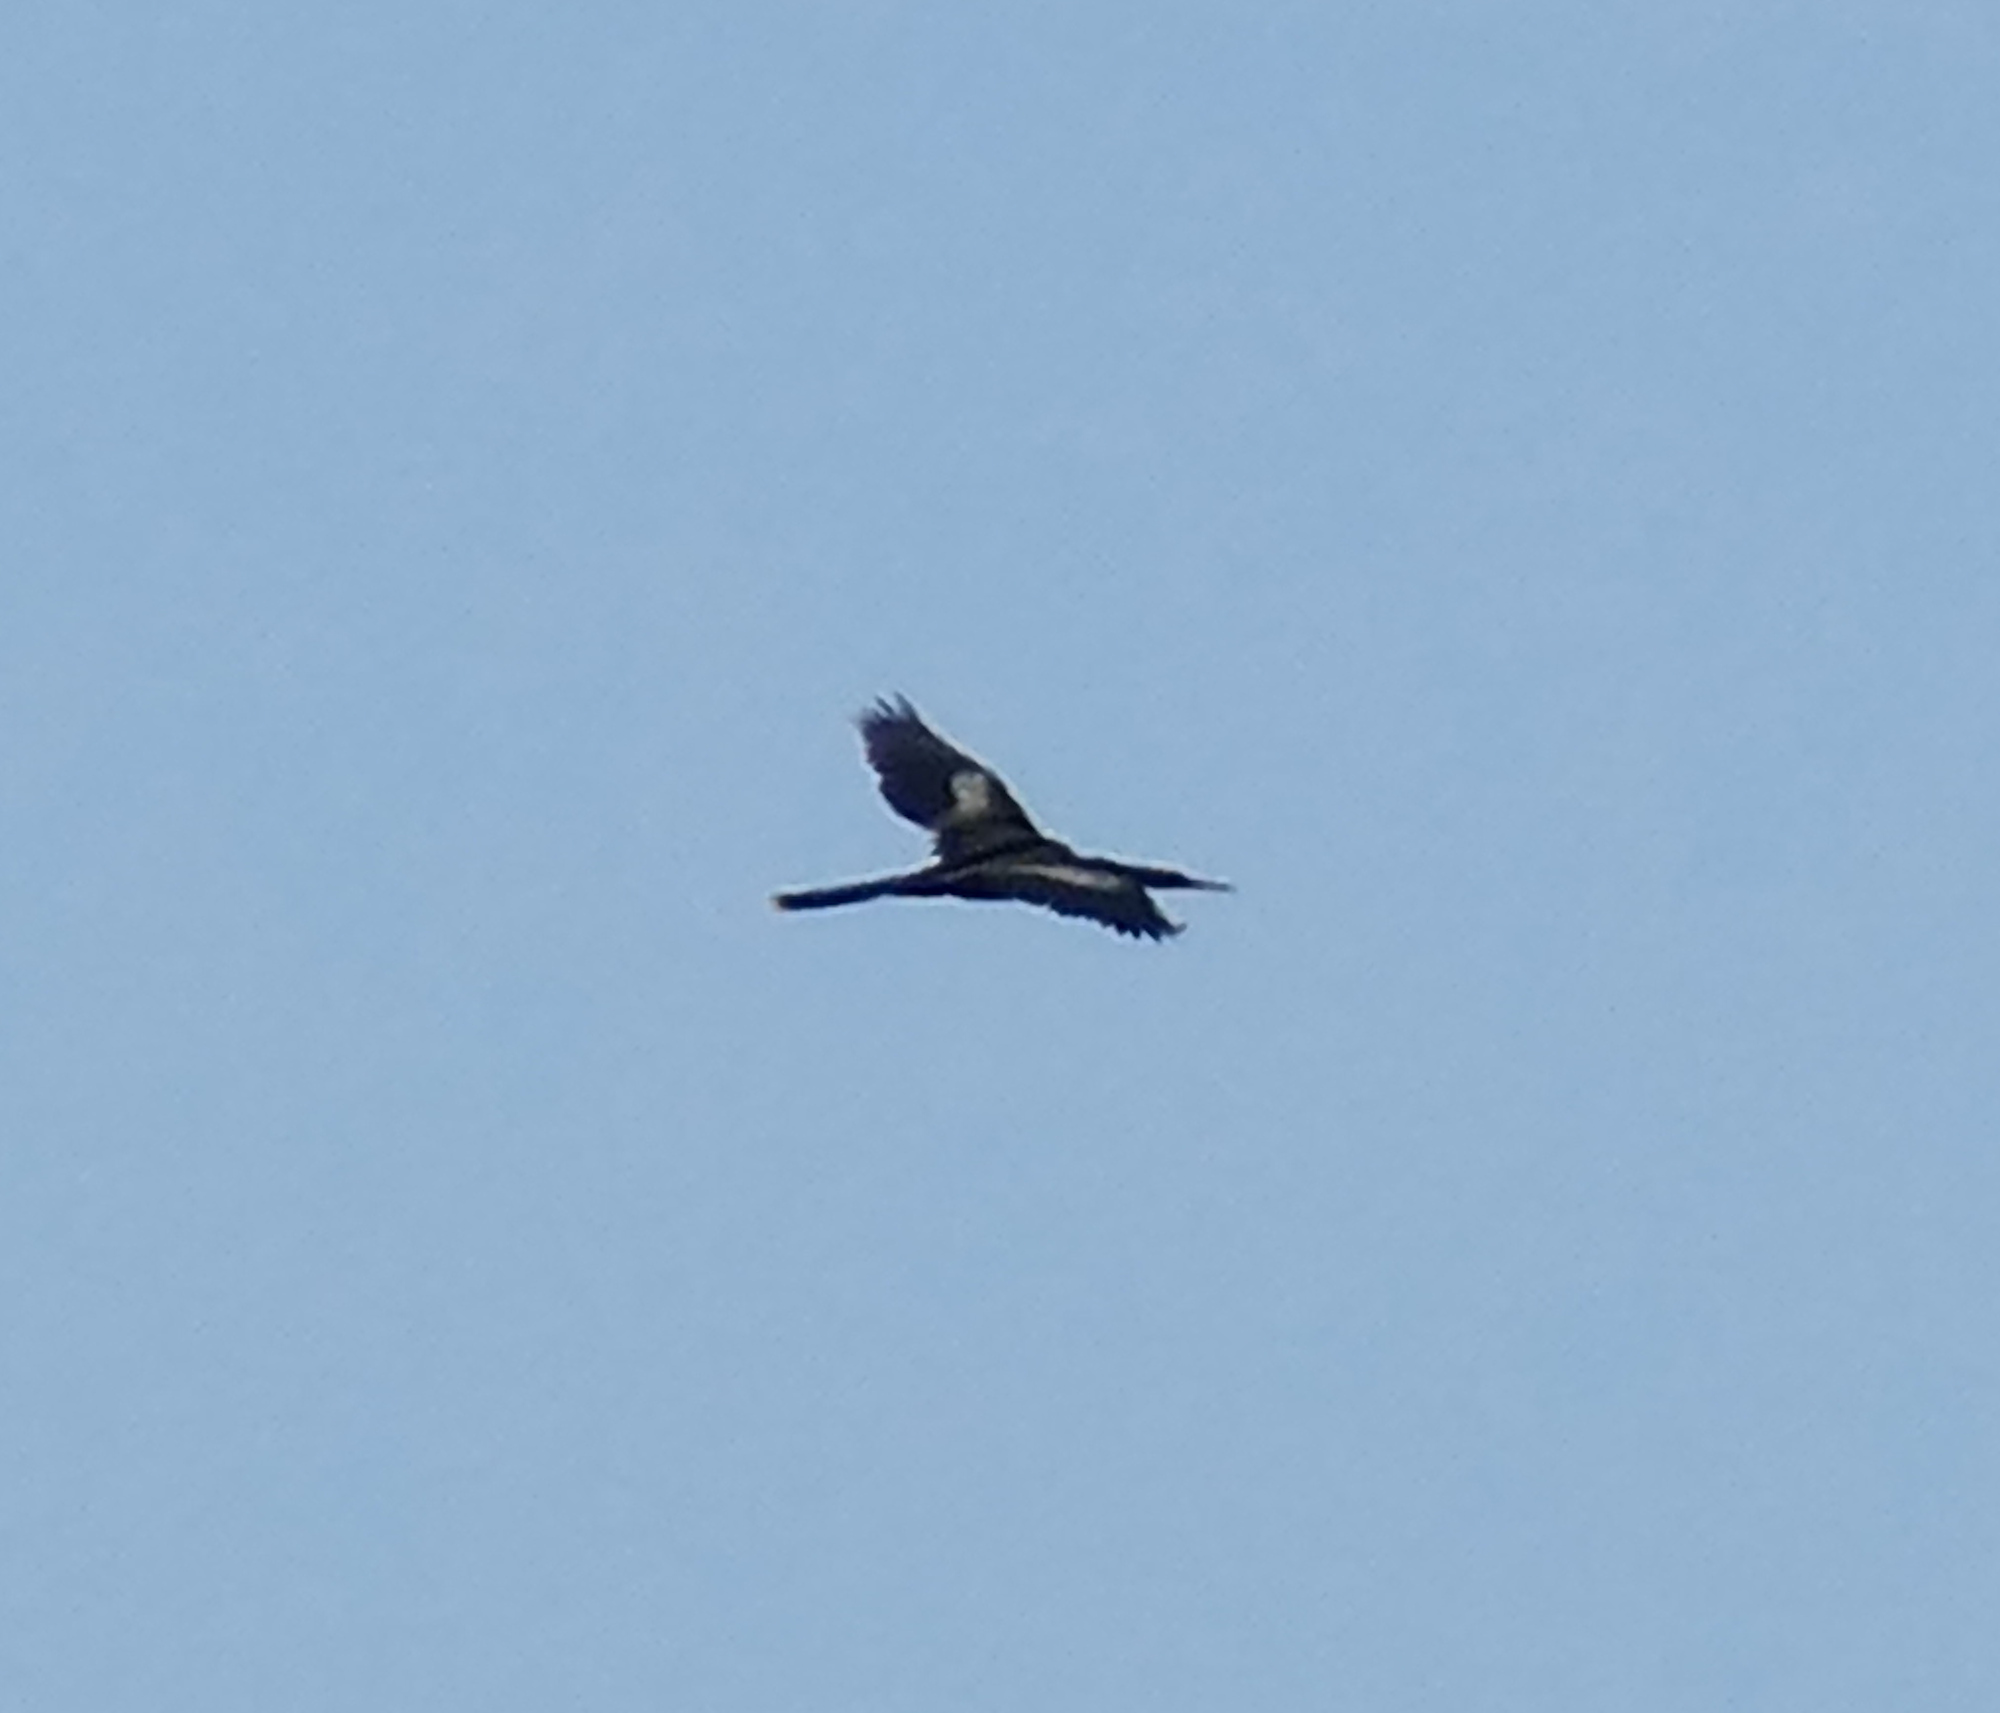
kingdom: Animalia
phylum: Chordata
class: Aves
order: Suliformes
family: Anhingidae
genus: Anhinga
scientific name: Anhinga anhinga
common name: Anhinga
